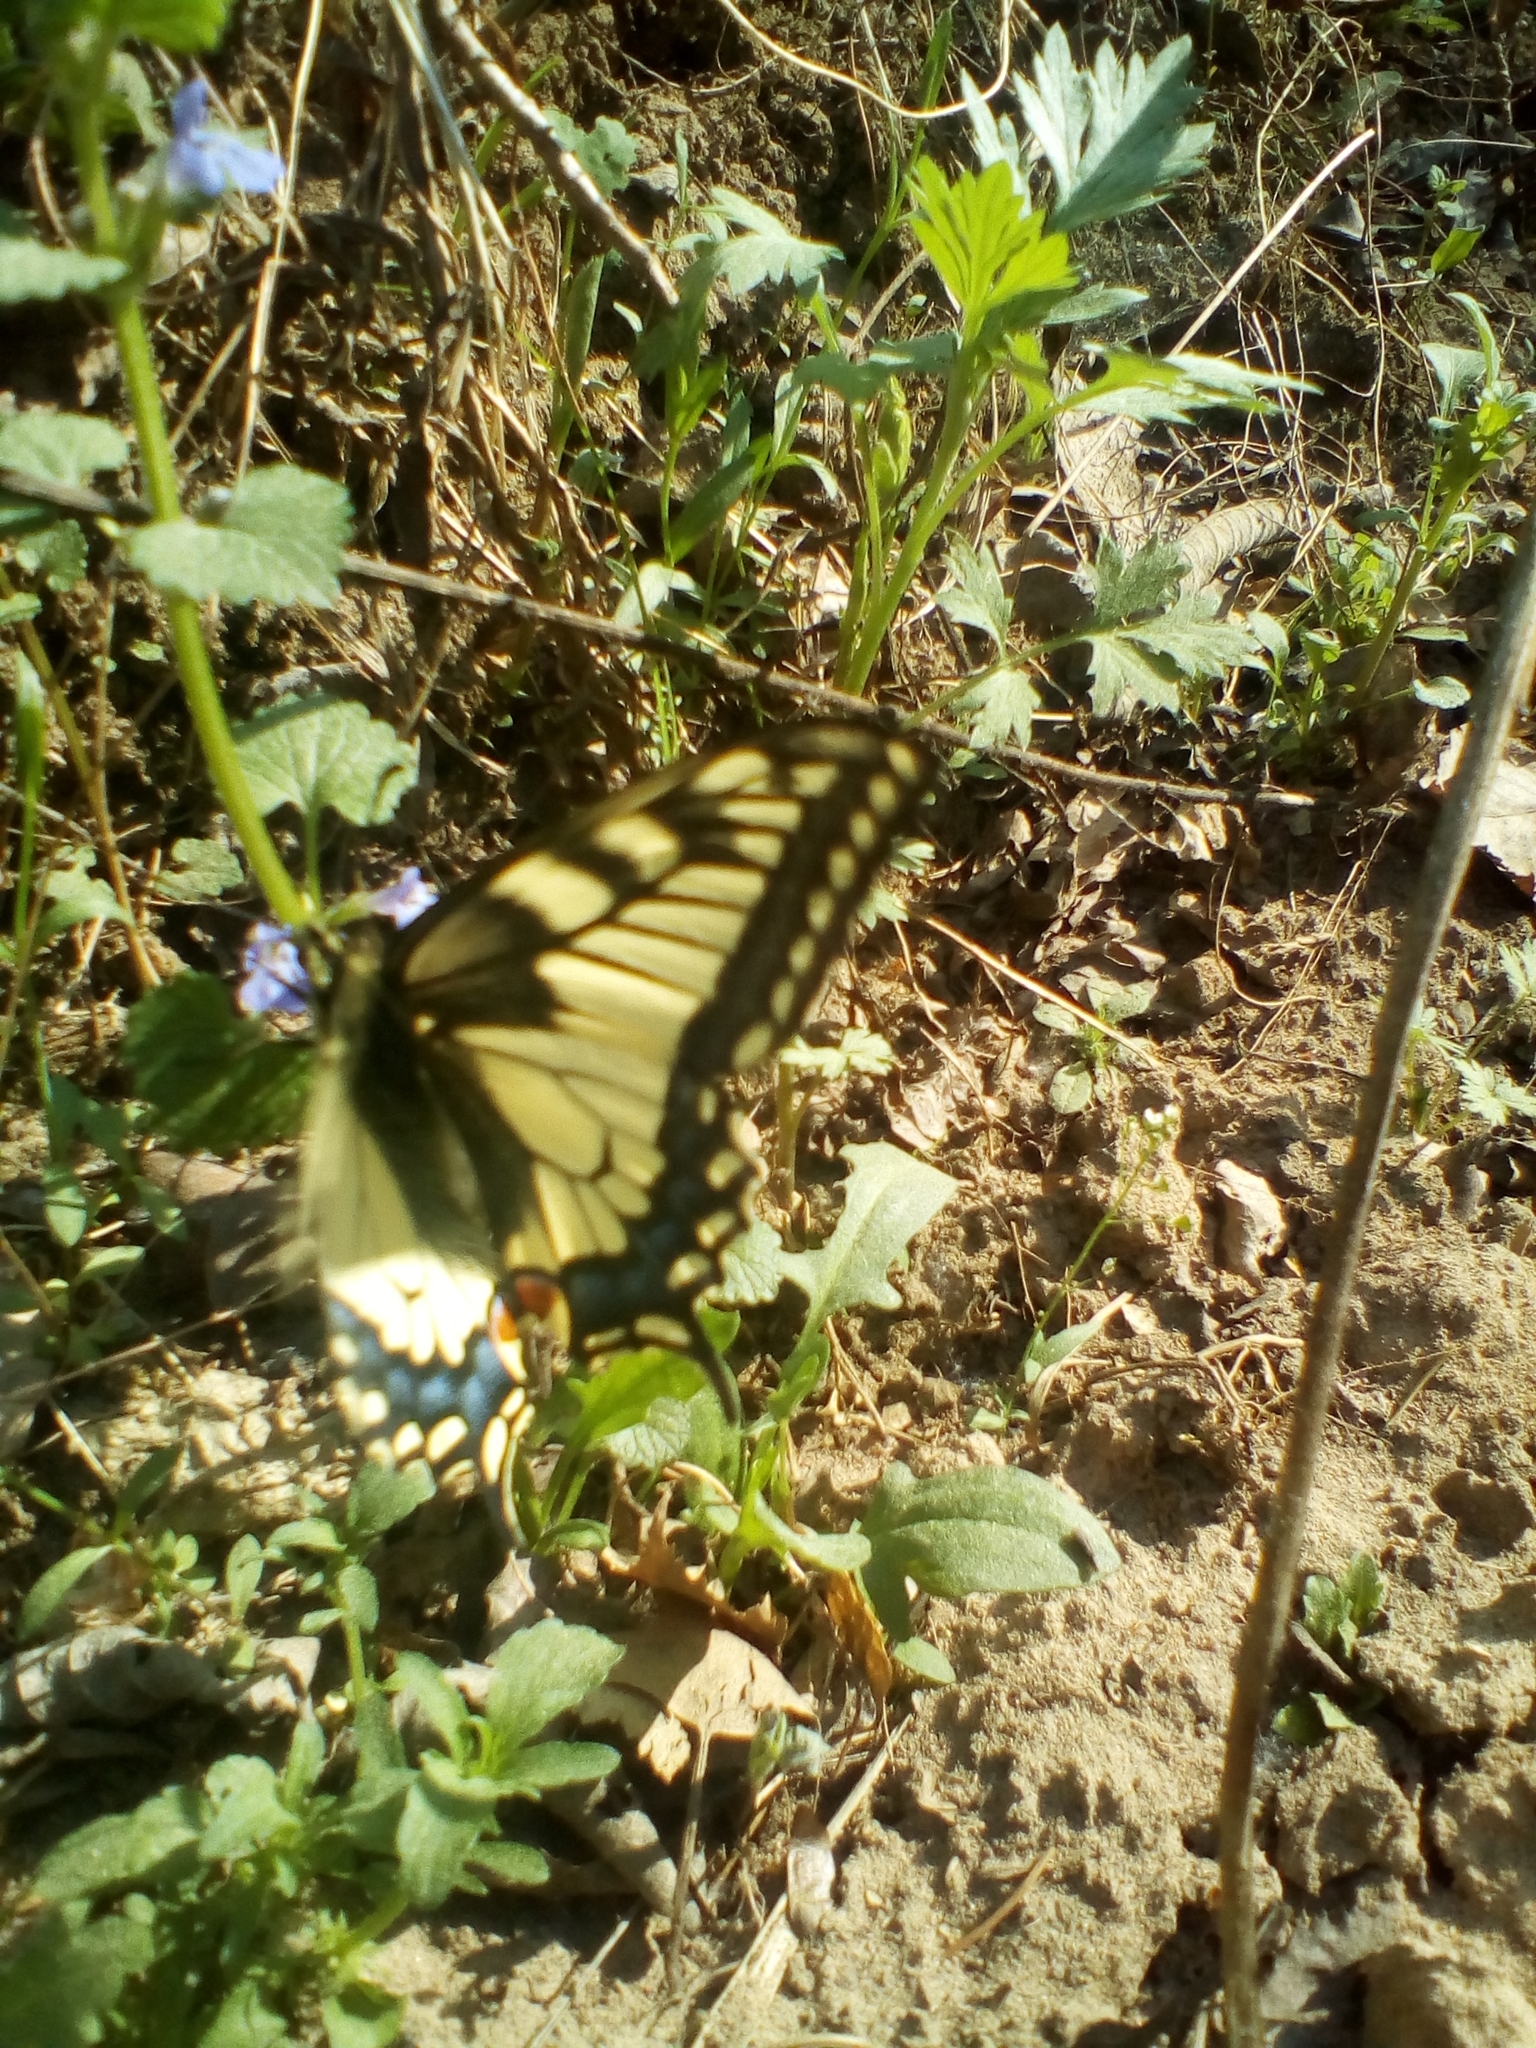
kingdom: Animalia
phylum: Arthropoda
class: Insecta
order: Lepidoptera
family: Papilionidae
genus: Papilio
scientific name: Papilio machaon
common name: Swallowtail
